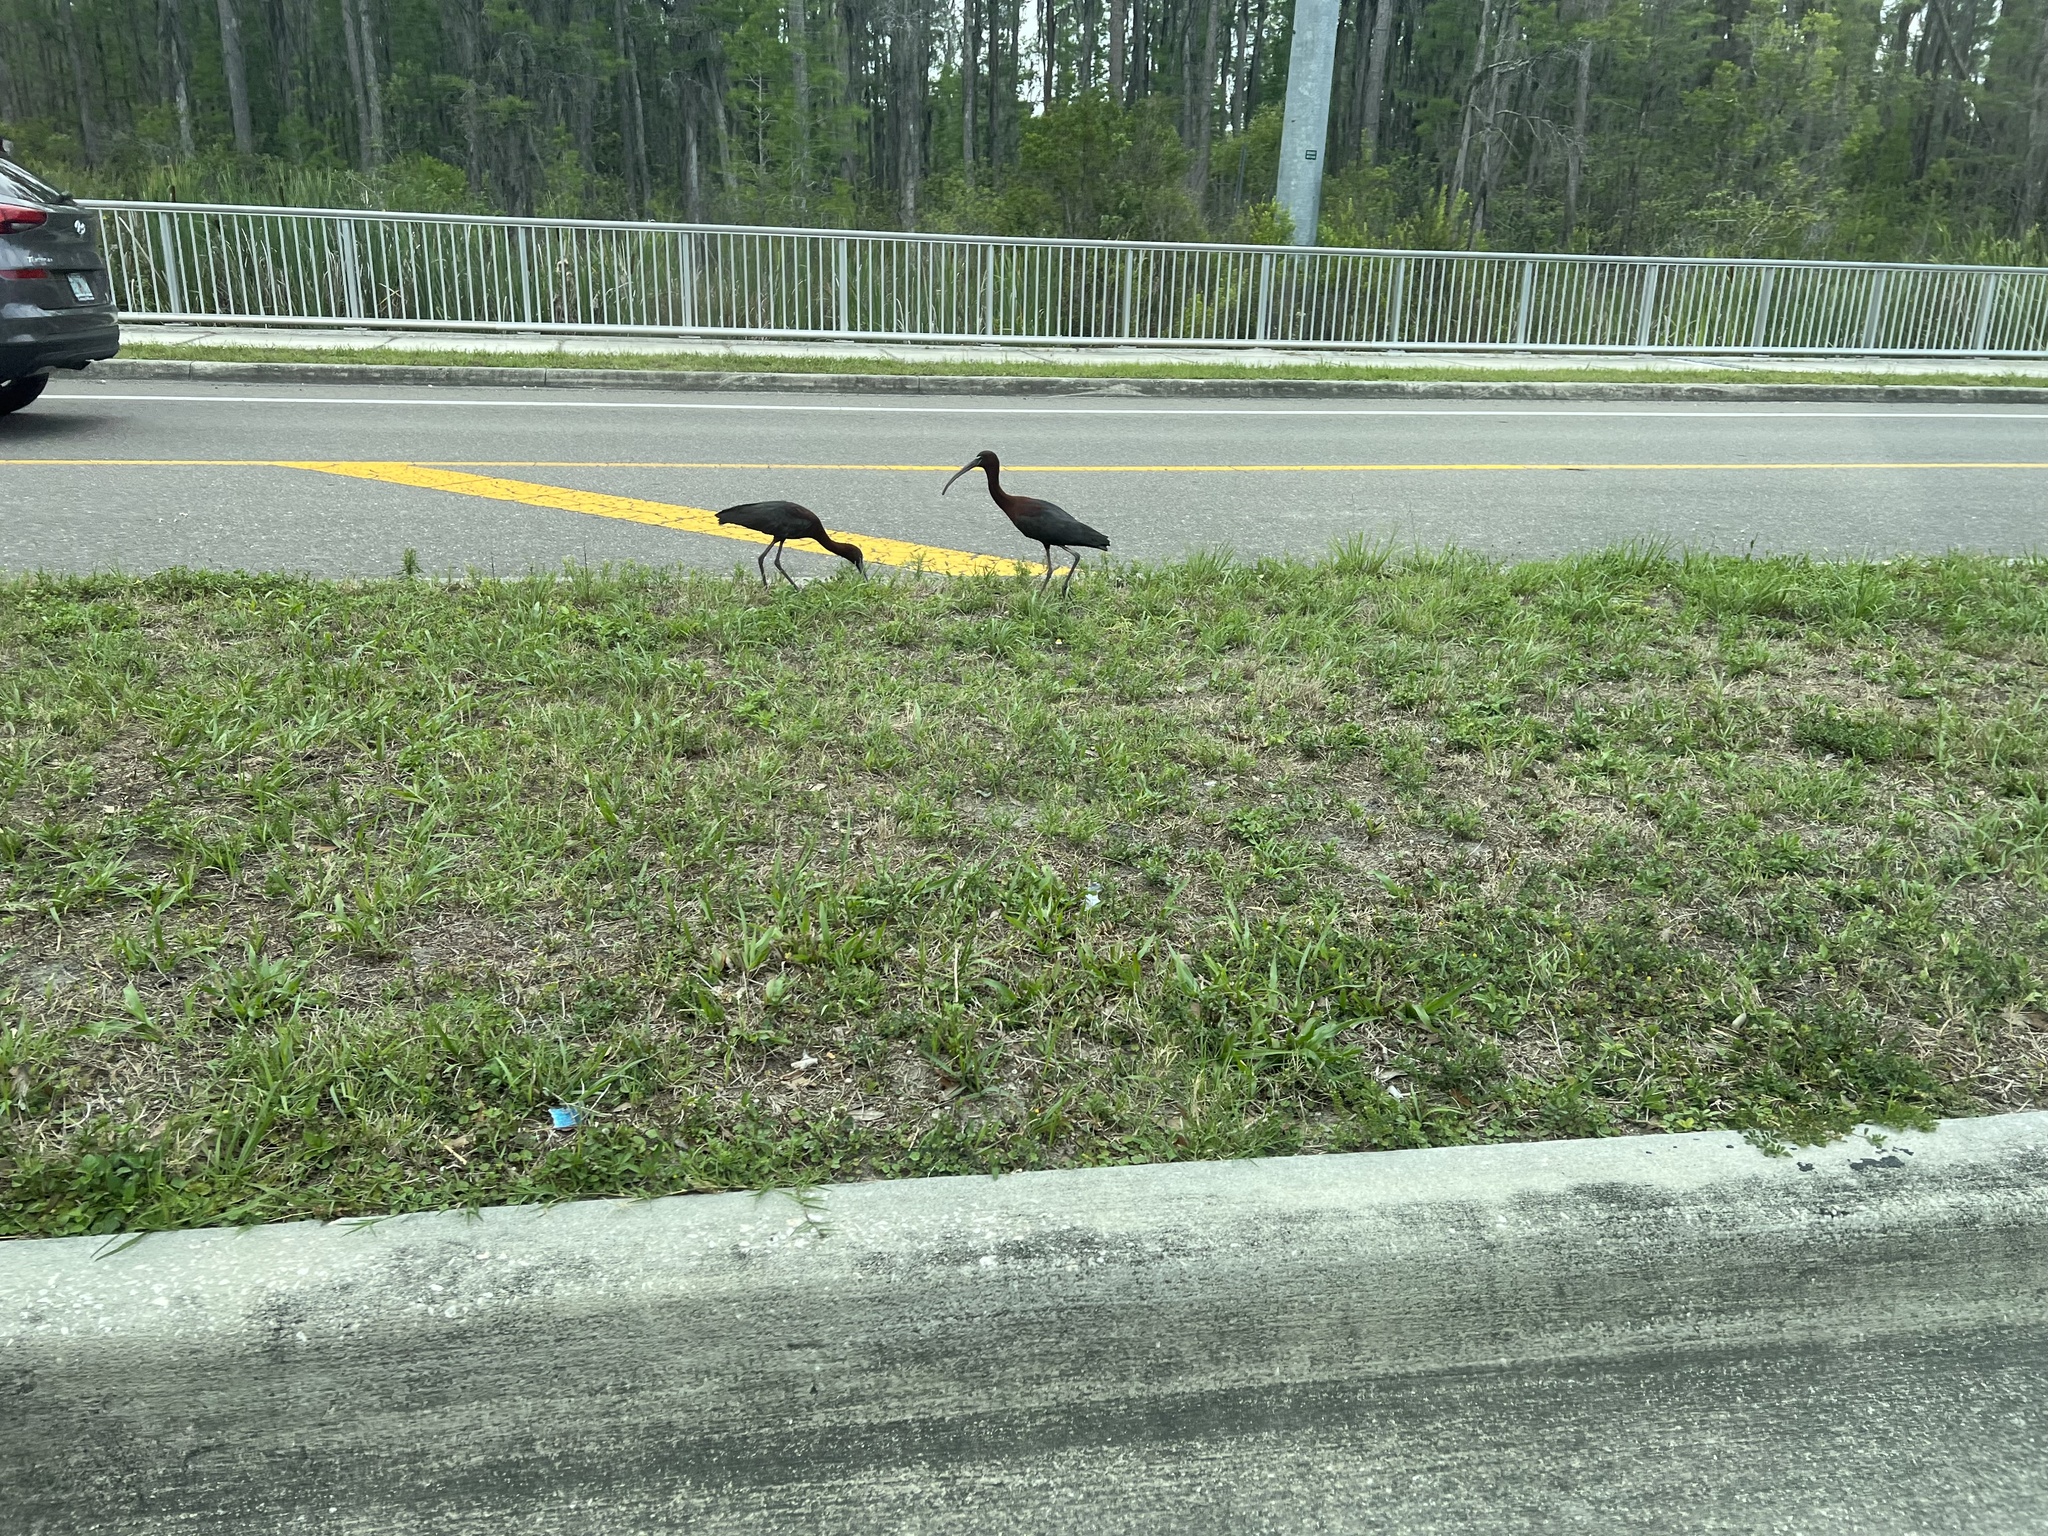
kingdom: Animalia
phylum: Chordata
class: Aves
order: Pelecaniformes
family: Threskiornithidae
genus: Plegadis
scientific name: Plegadis falcinellus
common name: Glossy ibis
